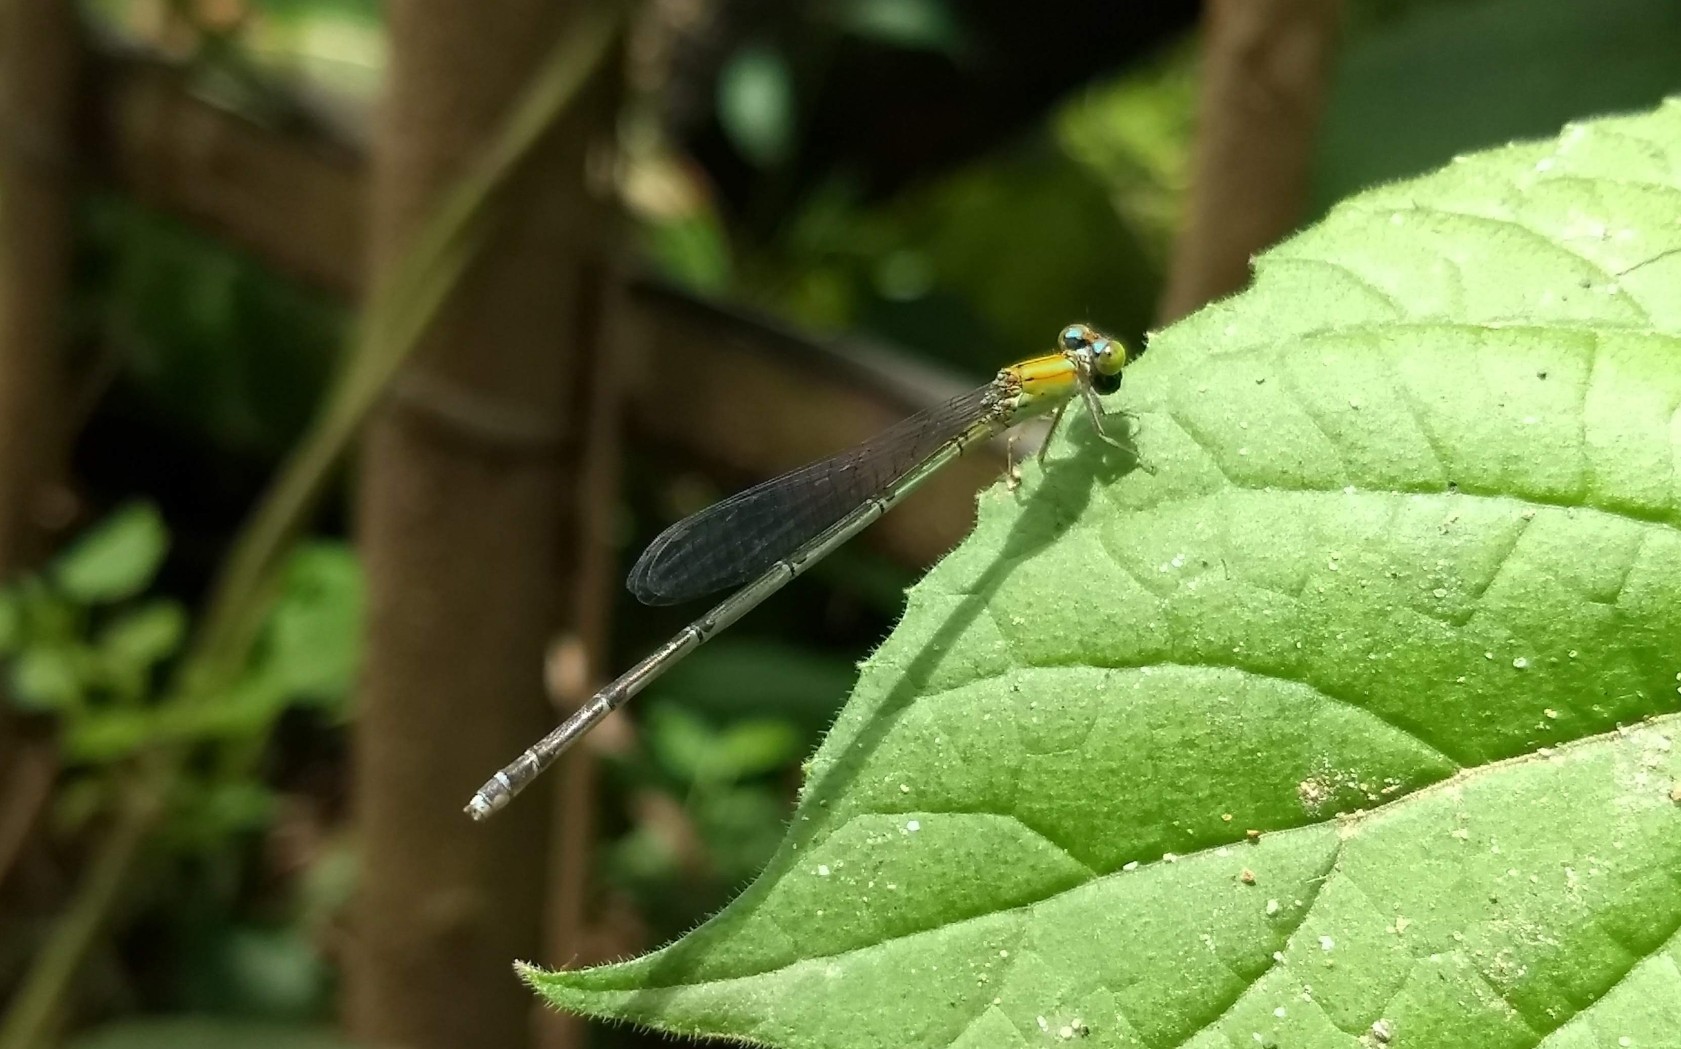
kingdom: Animalia
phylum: Arthropoda
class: Insecta
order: Odonata
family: Coenagrionidae
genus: Pseudagrion
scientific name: Pseudagrion microcephalum
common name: Blue riverdamsel
